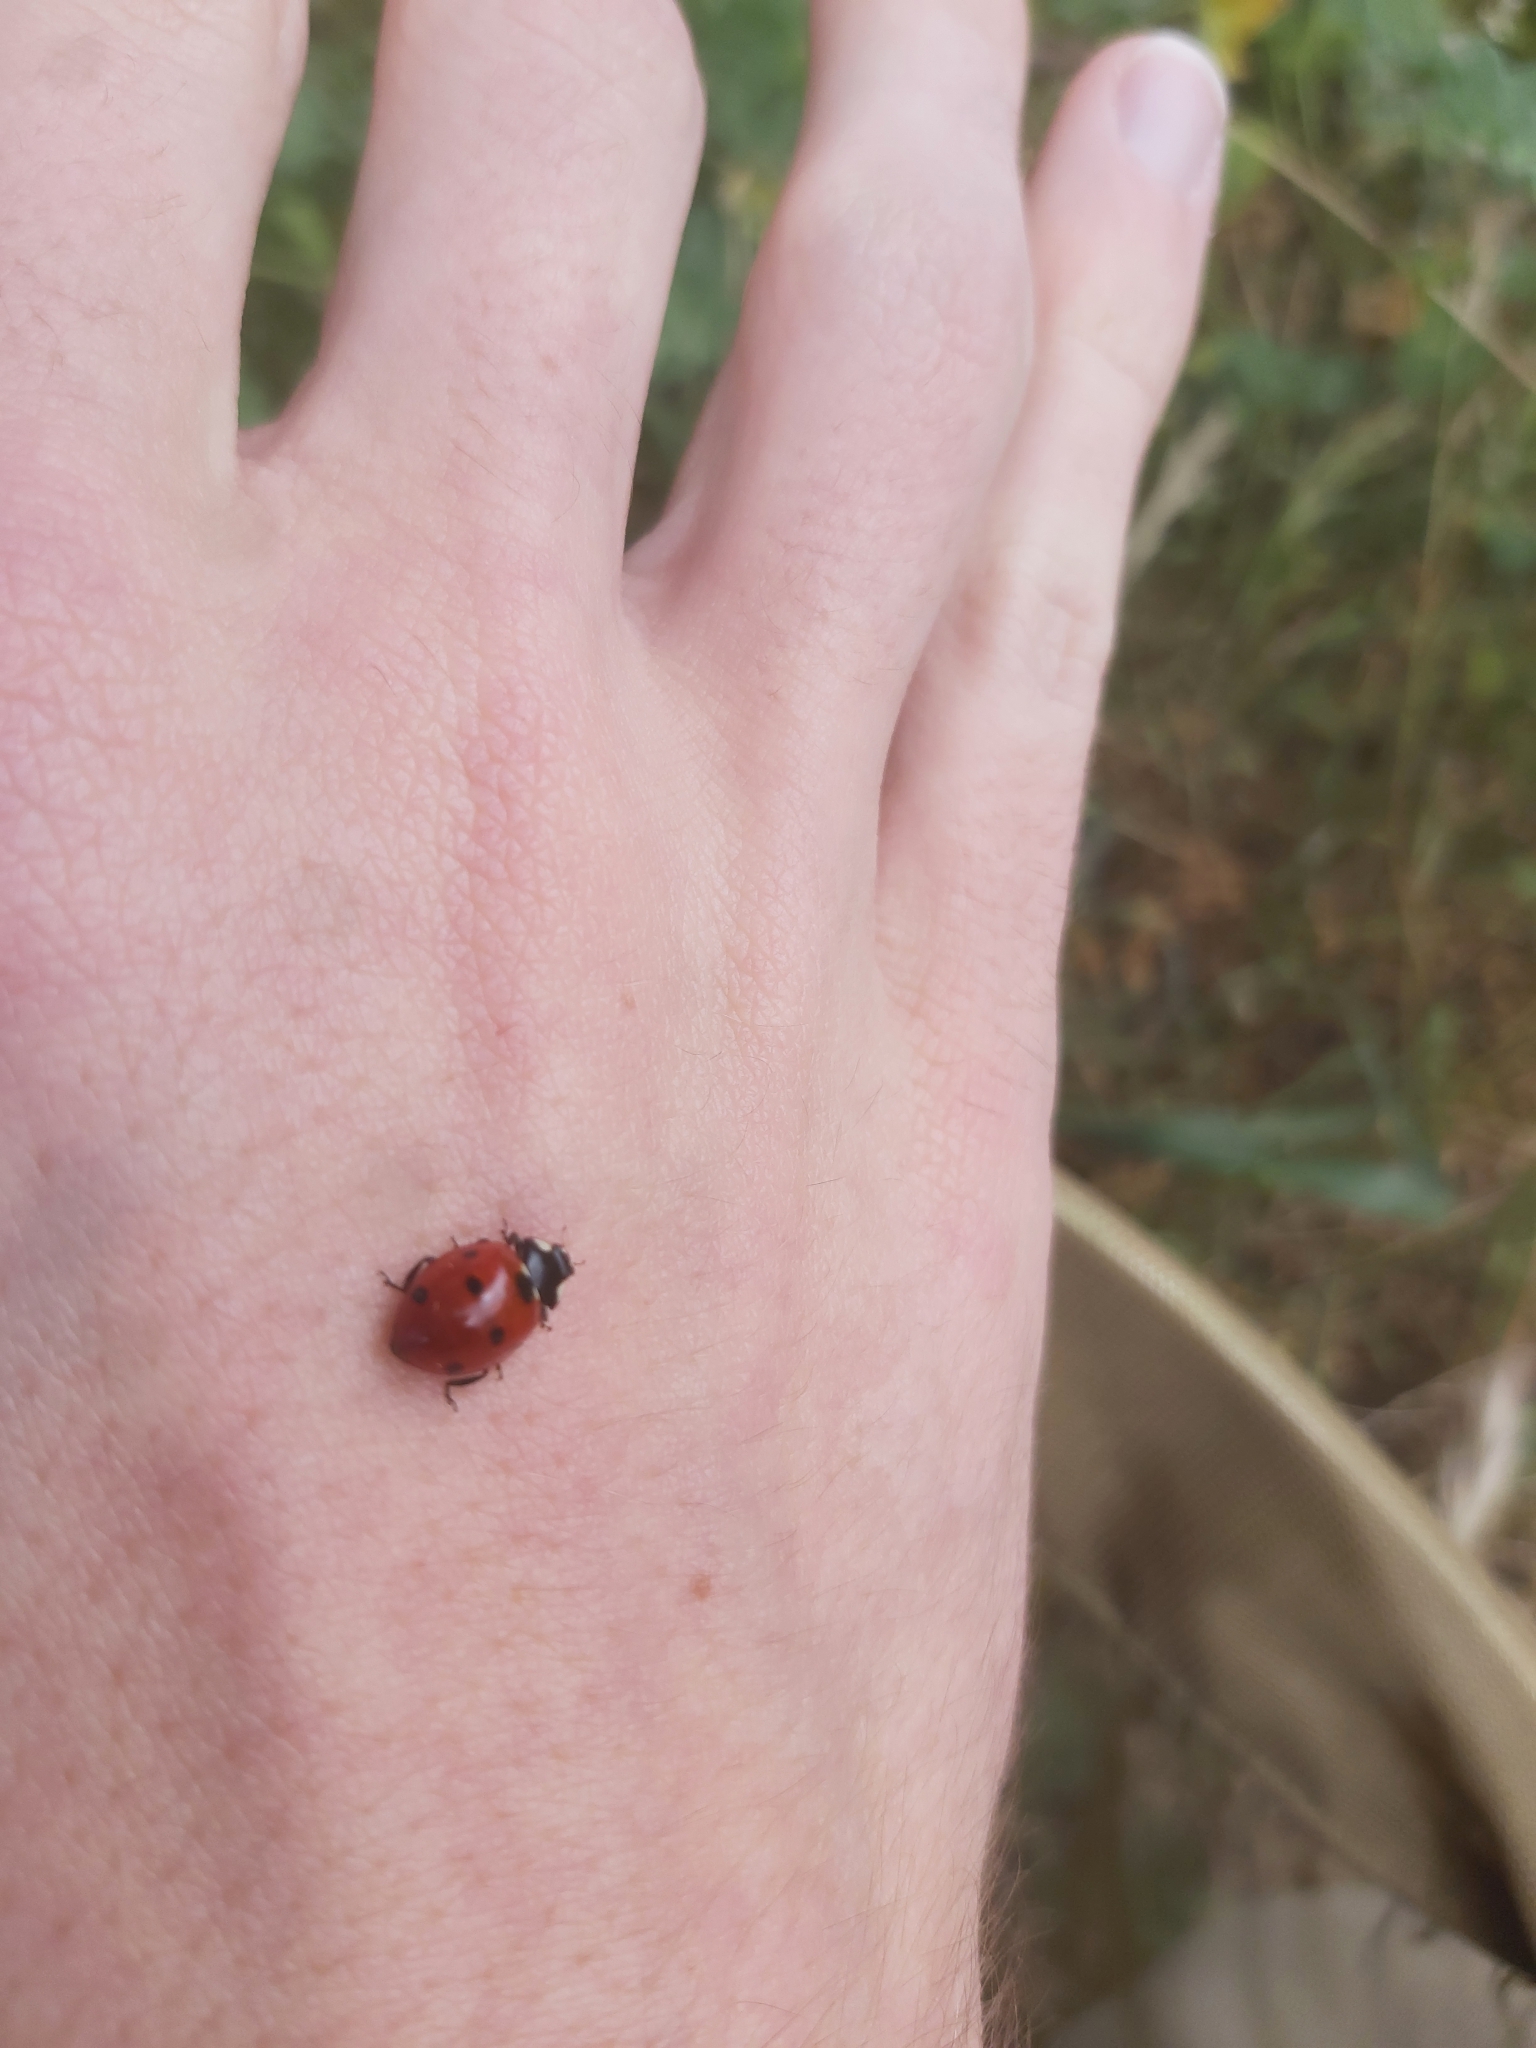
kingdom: Animalia
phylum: Arthropoda
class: Insecta
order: Coleoptera
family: Coccinellidae
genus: Coccinella
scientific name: Coccinella septempunctata
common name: Sevenspotted lady beetle
